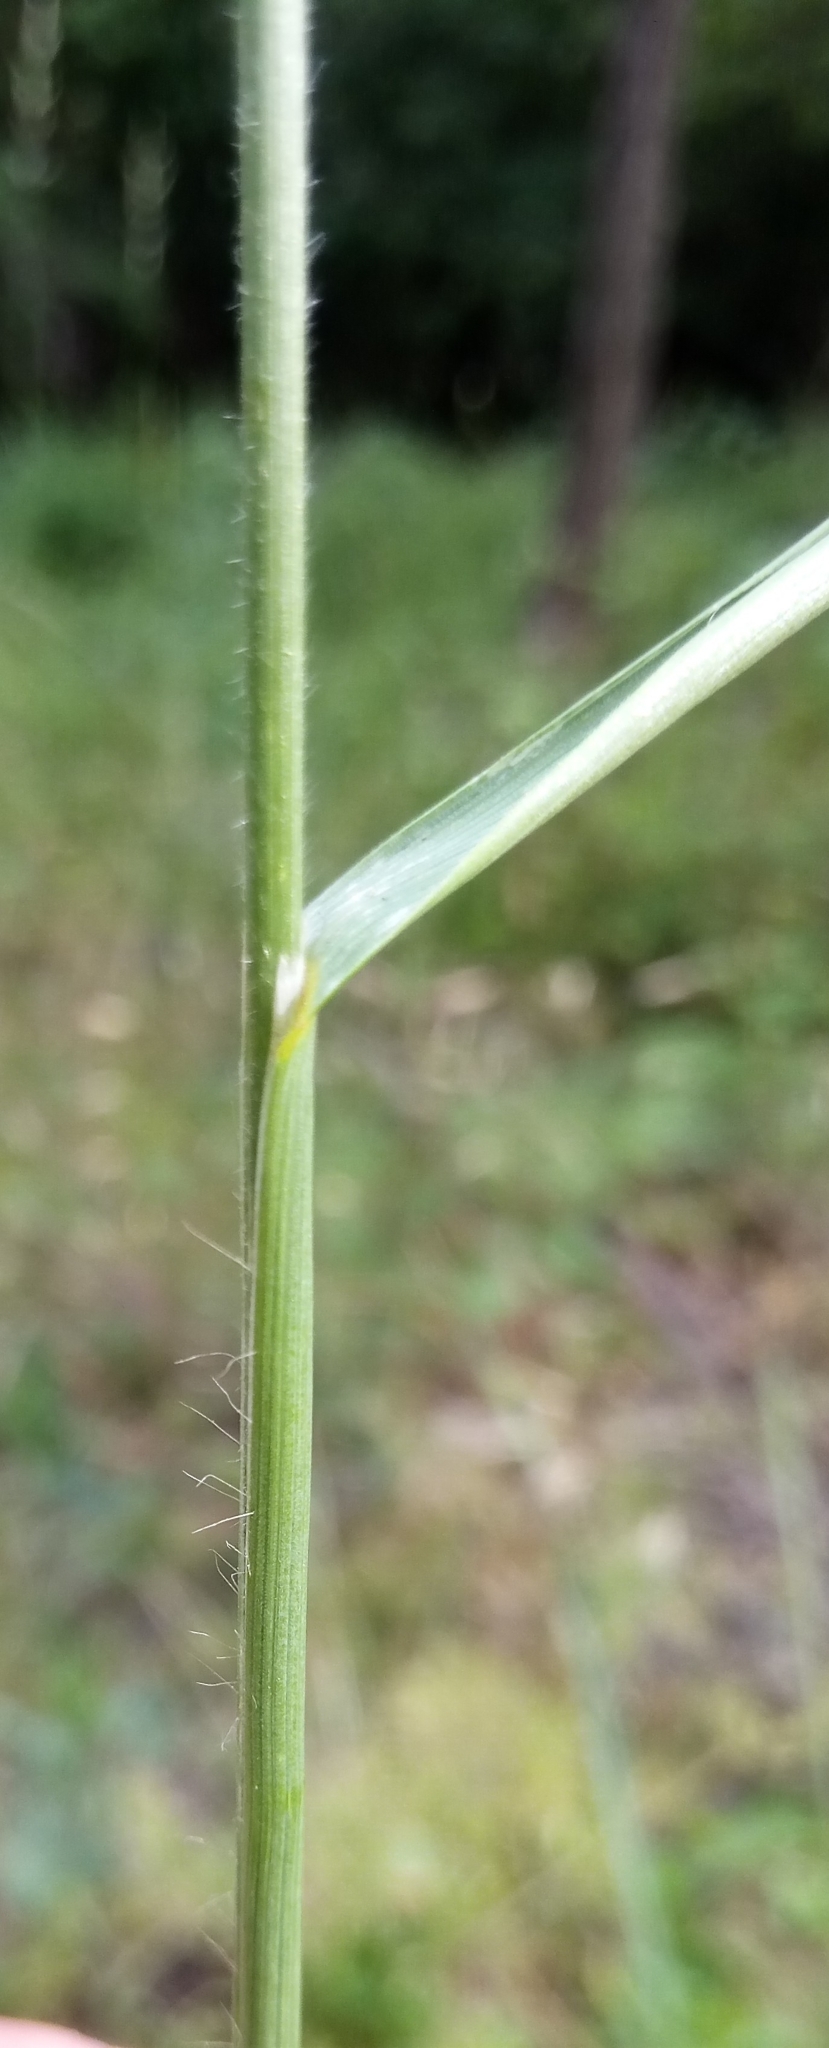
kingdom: Plantae
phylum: Tracheophyta
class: Liliopsida
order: Poales
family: Poaceae
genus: Bromus
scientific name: Bromus erectus
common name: Erect brome
